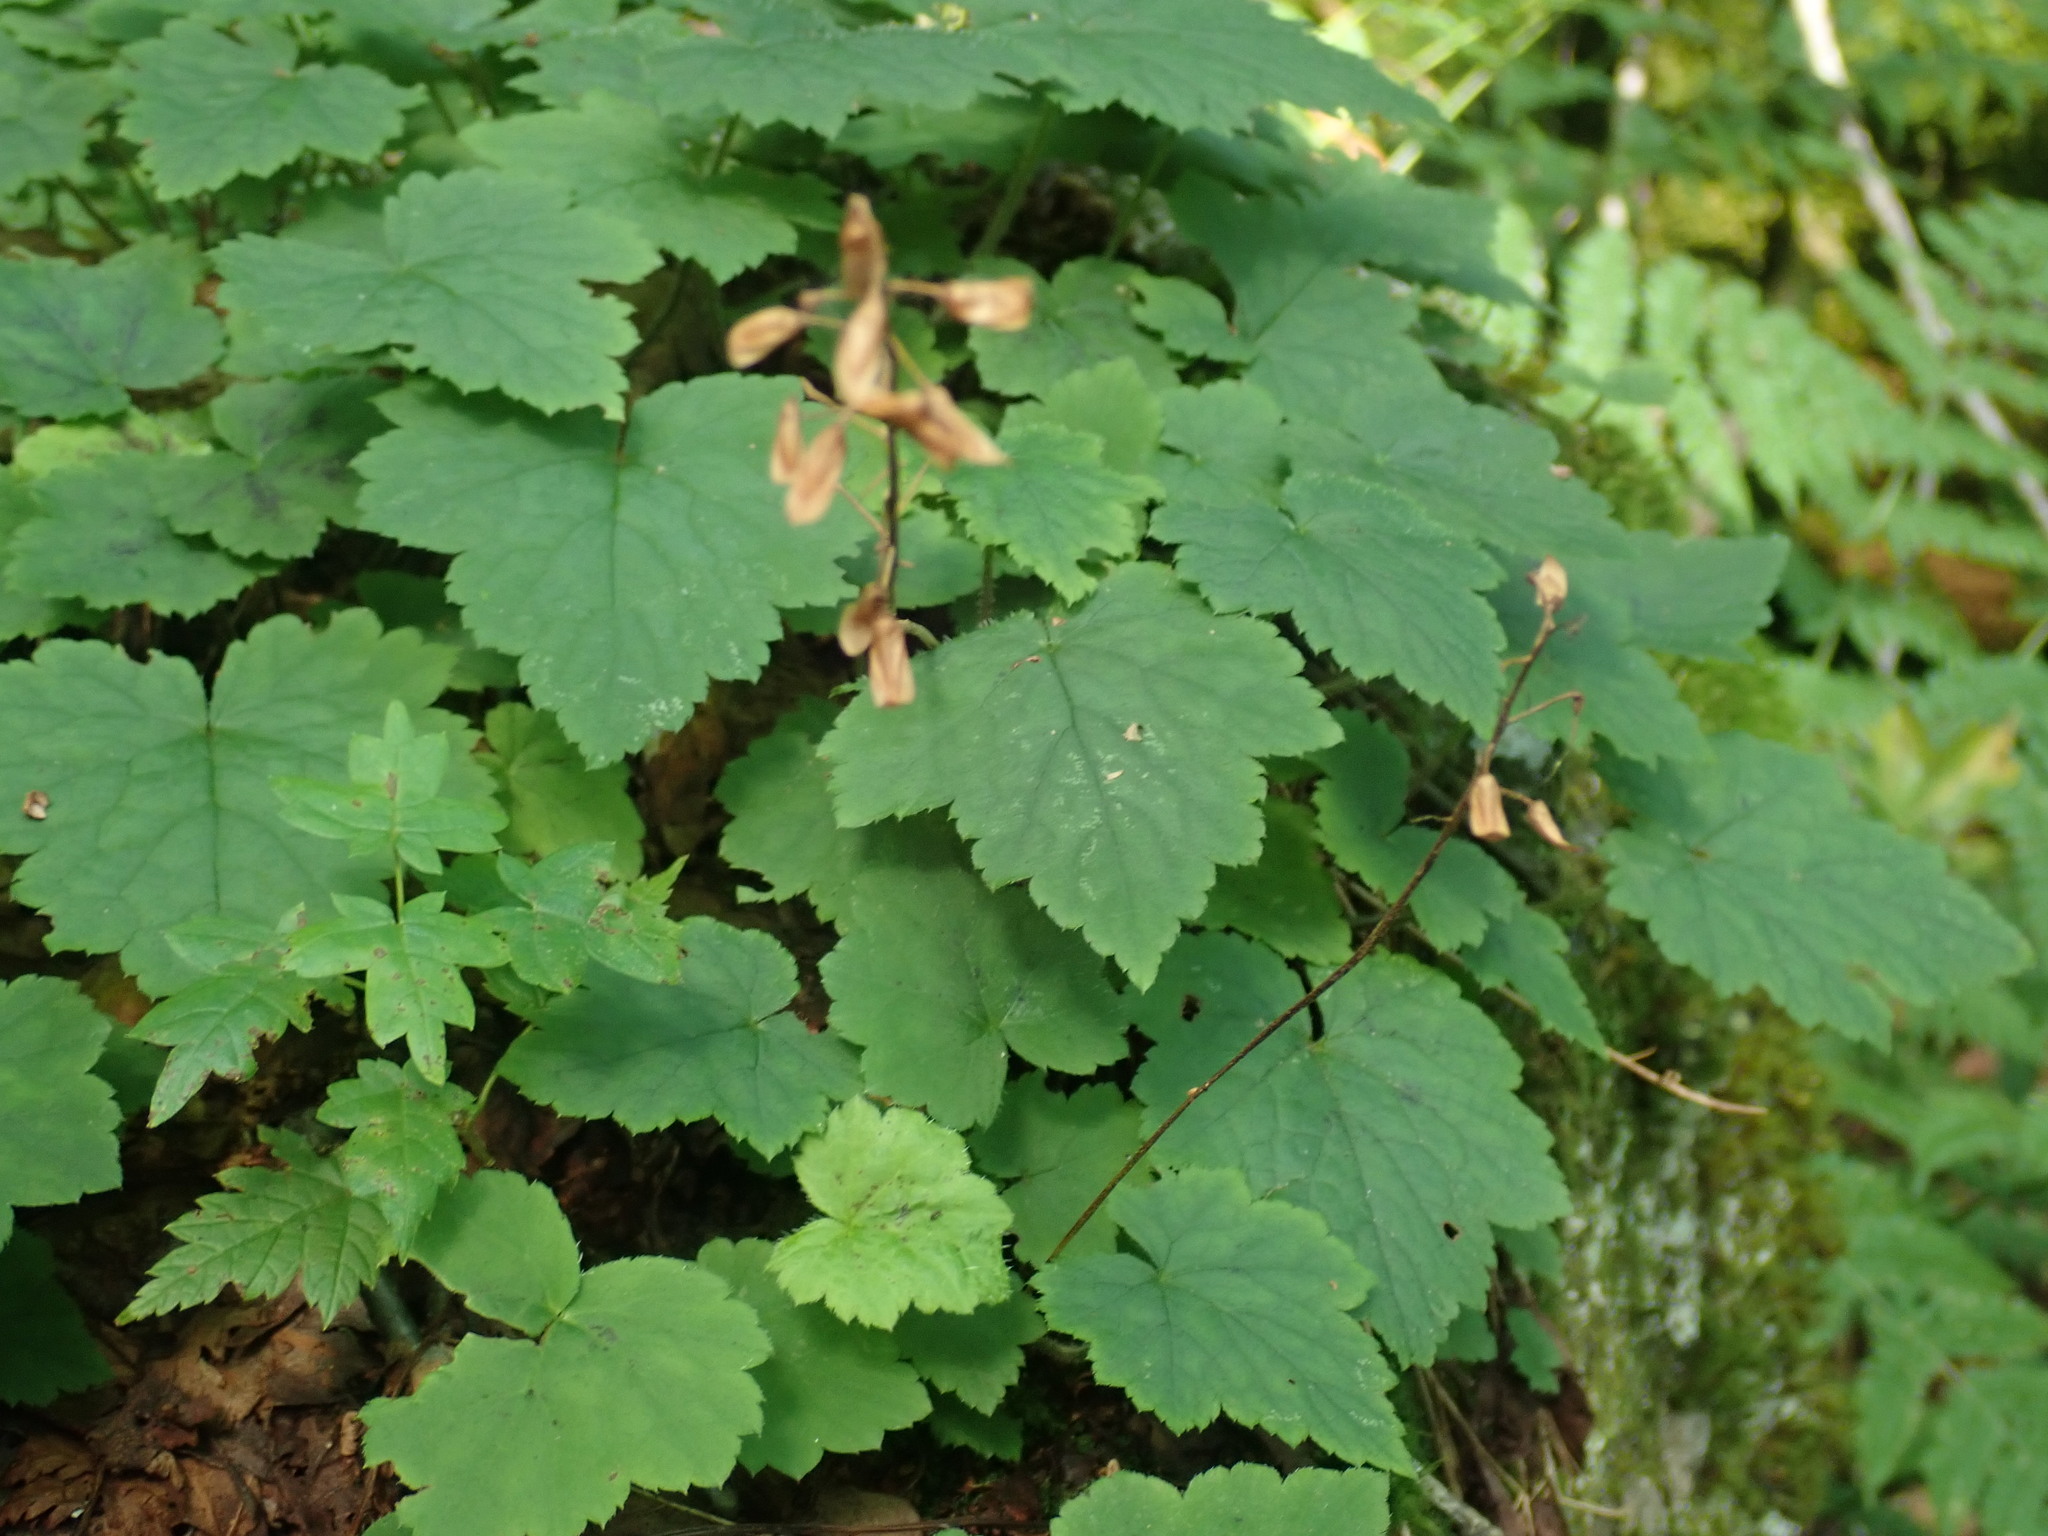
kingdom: Plantae
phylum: Tracheophyta
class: Magnoliopsida
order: Saxifragales
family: Saxifragaceae
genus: Tiarella
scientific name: Tiarella stolonifera
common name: Stoloniferous foamflower
